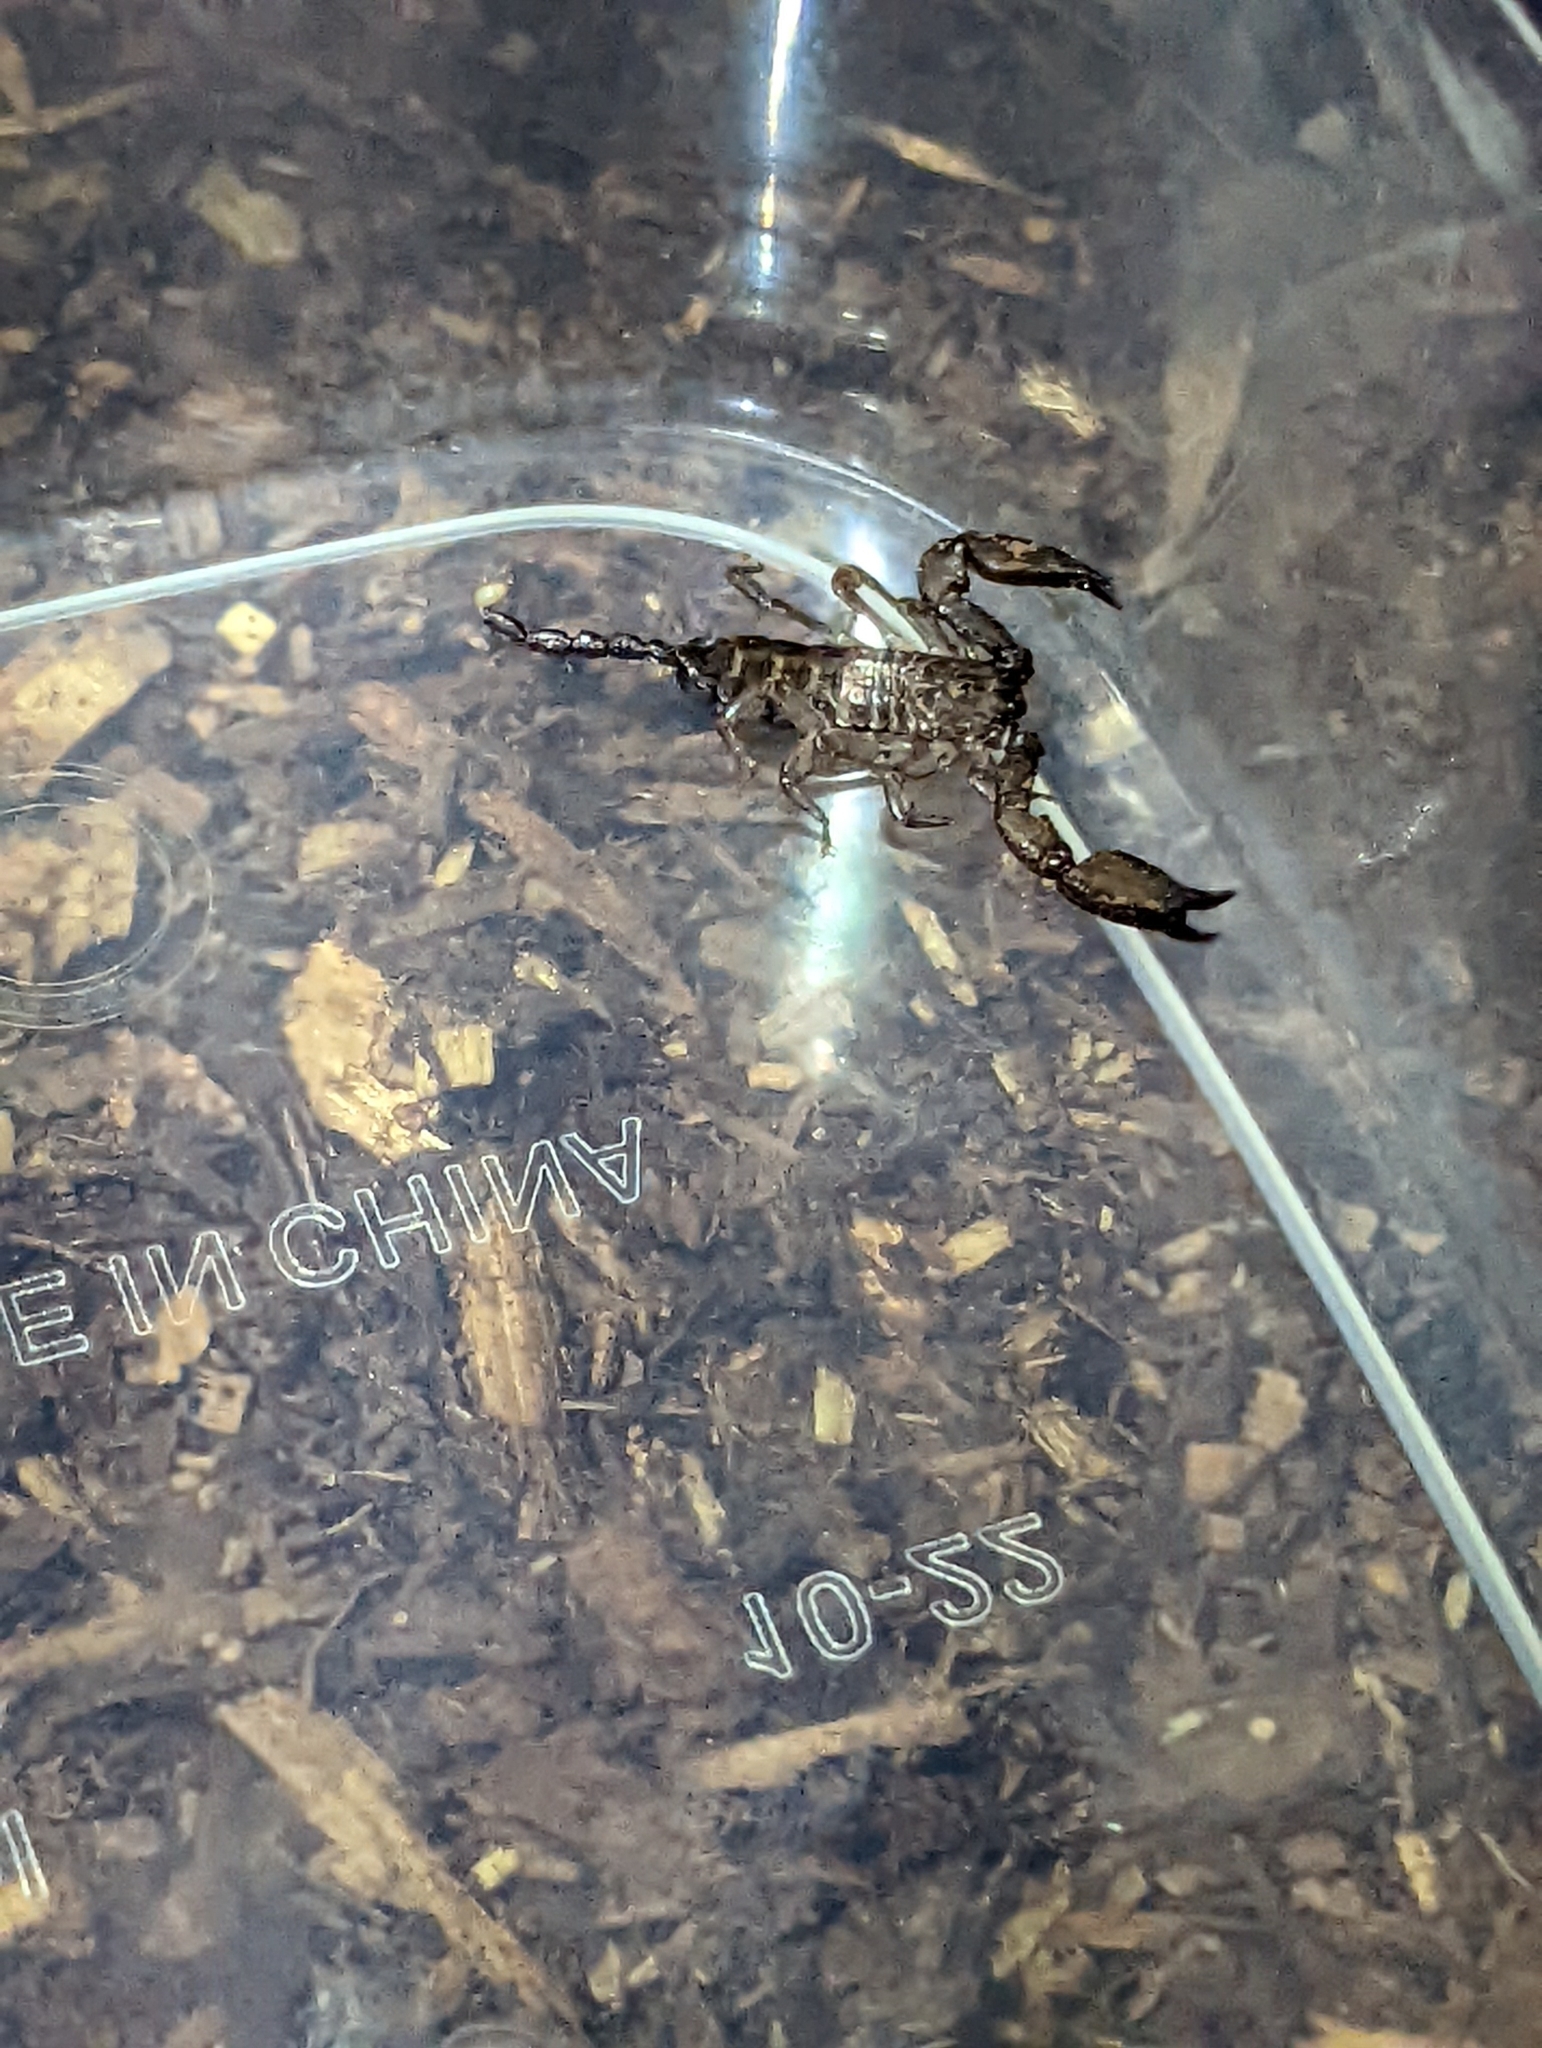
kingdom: Animalia
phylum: Arthropoda
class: Arachnida
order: Scorpiones
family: Hormuridae
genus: Liocheles
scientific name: Liocheles australasiae
